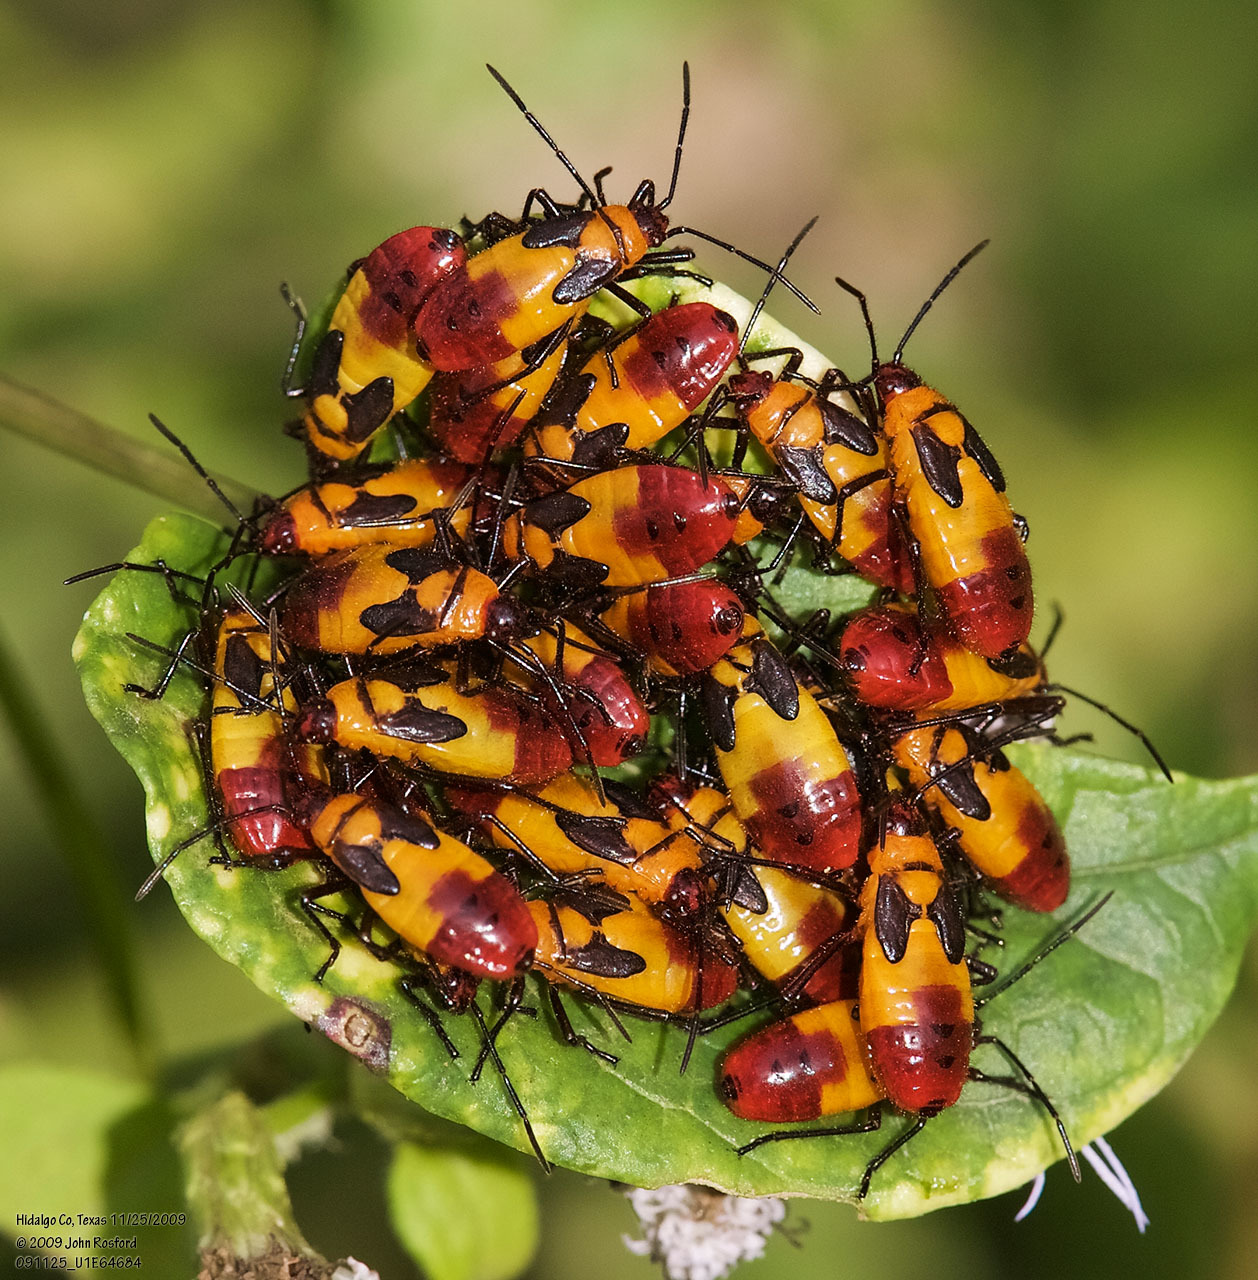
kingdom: Animalia
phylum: Arthropoda
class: Insecta
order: Hemiptera
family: Lygaeidae
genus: Oncopeltus
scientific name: Oncopeltus sexmaculatus
